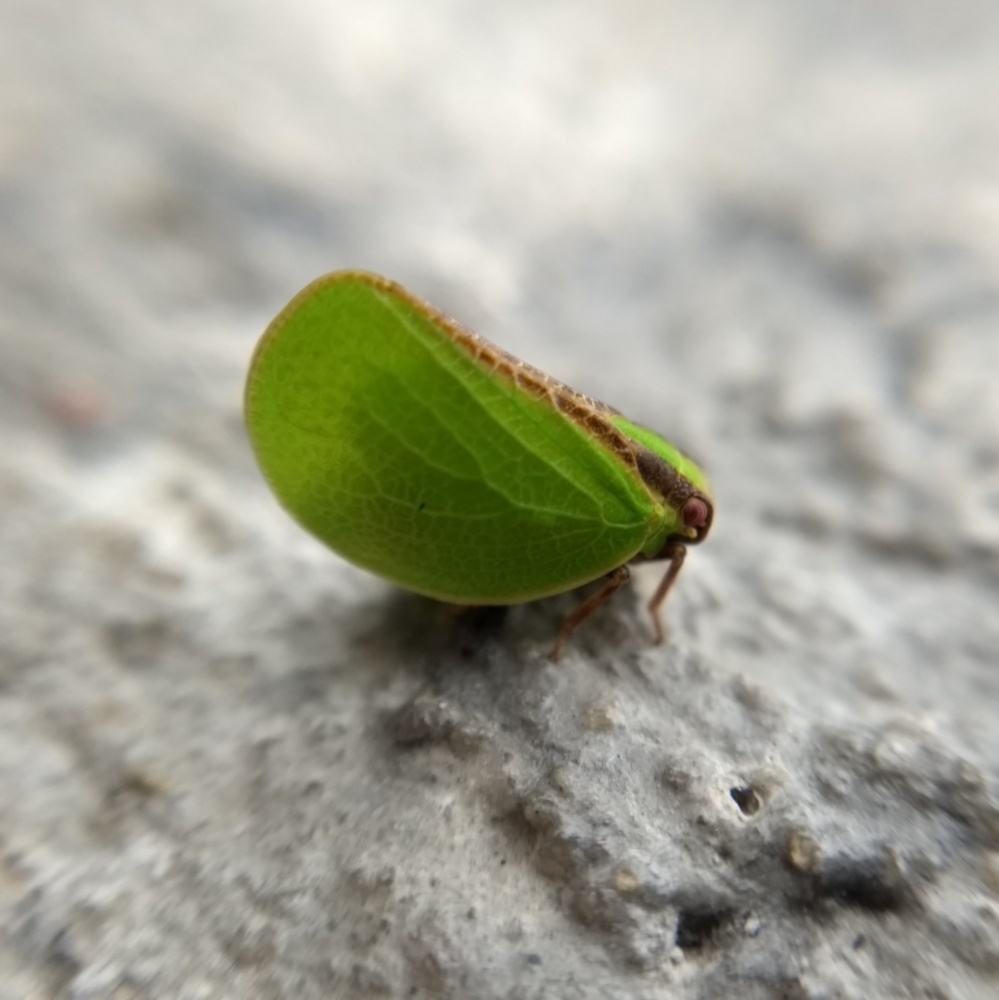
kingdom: Animalia
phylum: Arthropoda
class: Insecta
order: Hemiptera
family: Acanaloniidae
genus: Acanalonia
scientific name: Acanalonia bivittata
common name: Two-striped planthopper
